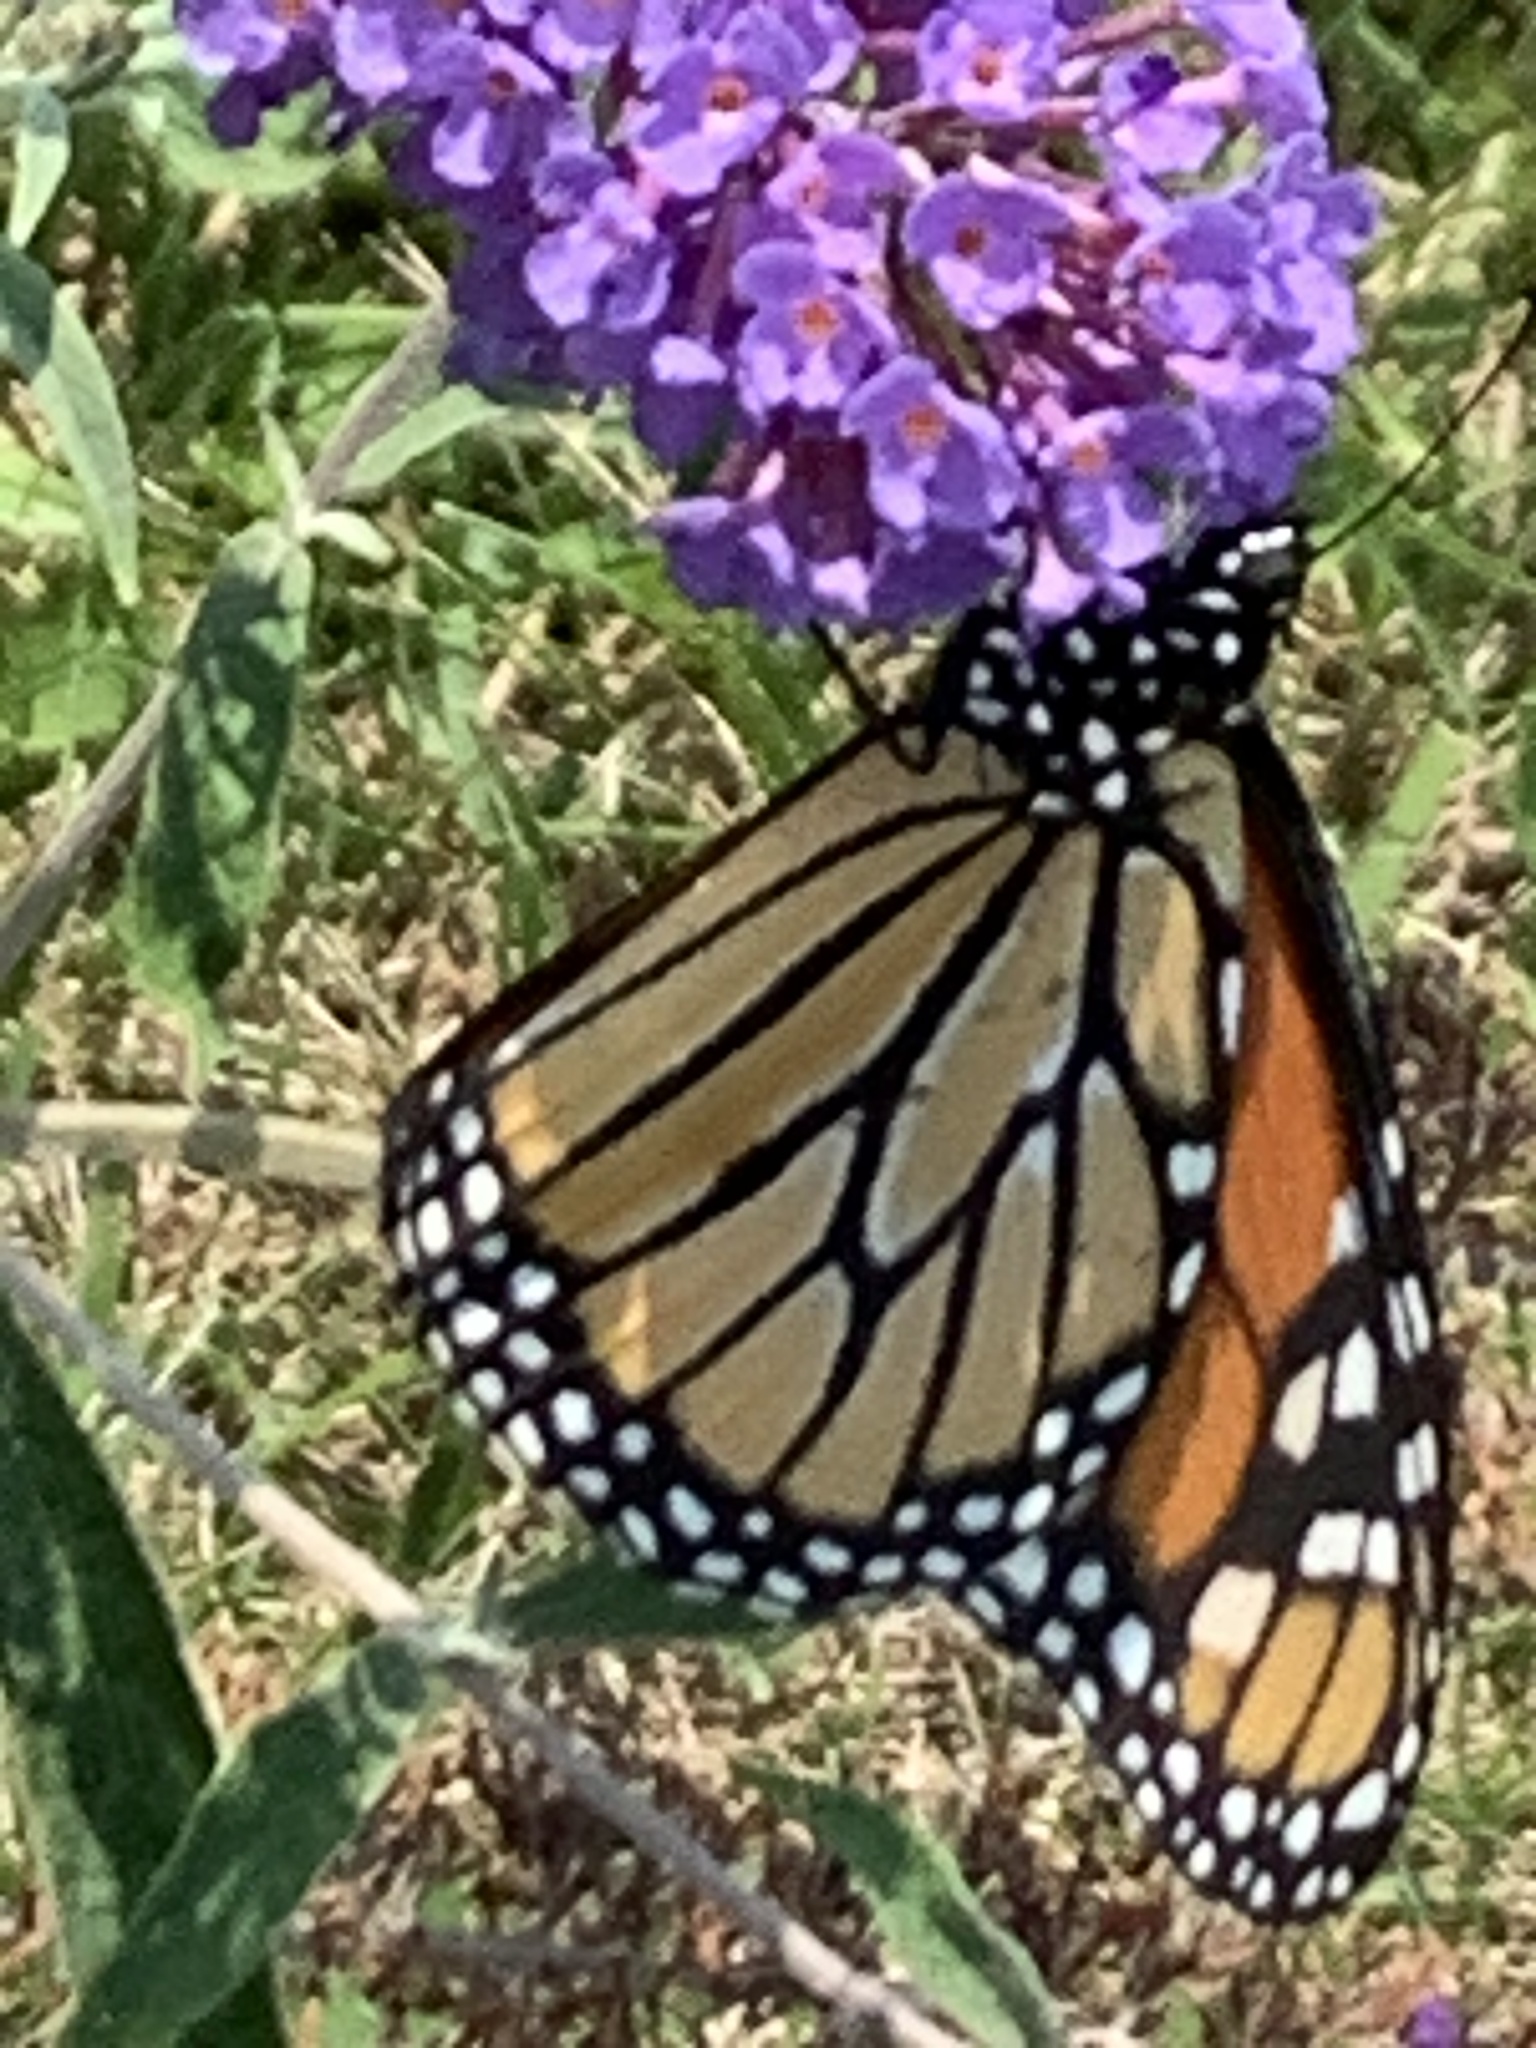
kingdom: Animalia
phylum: Arthropoda
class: Insecta
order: Lepidoptera
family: Nymphalidae
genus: Danaus
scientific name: Danaus plexippus
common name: Monarch
